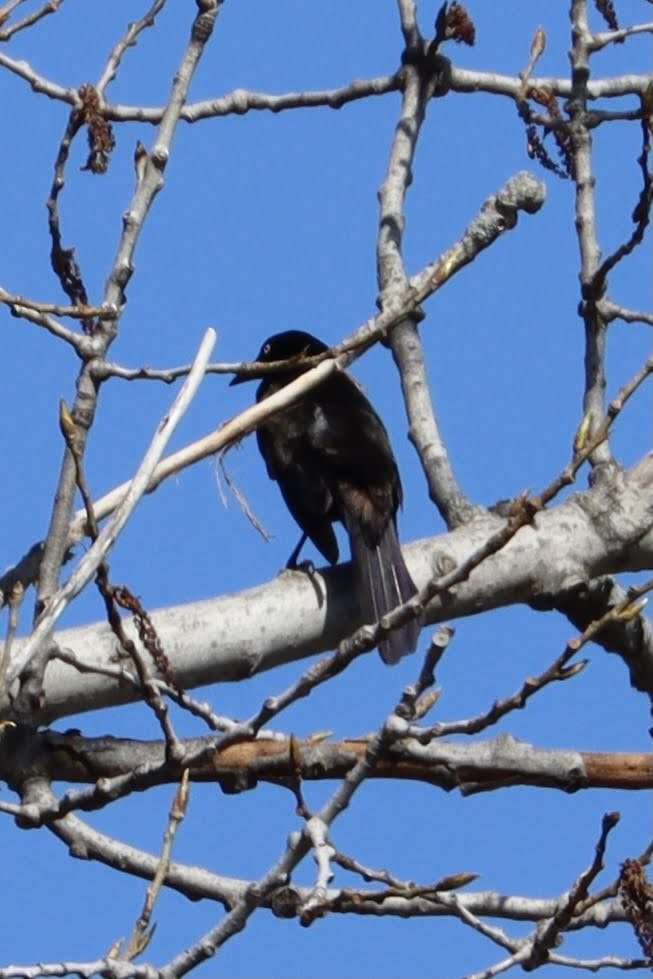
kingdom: Animalia
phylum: Chordata
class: Aves
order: Passeriformes
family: Icteridae
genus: Quiscalus
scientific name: Quiscalus quiscula
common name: Common grackle
